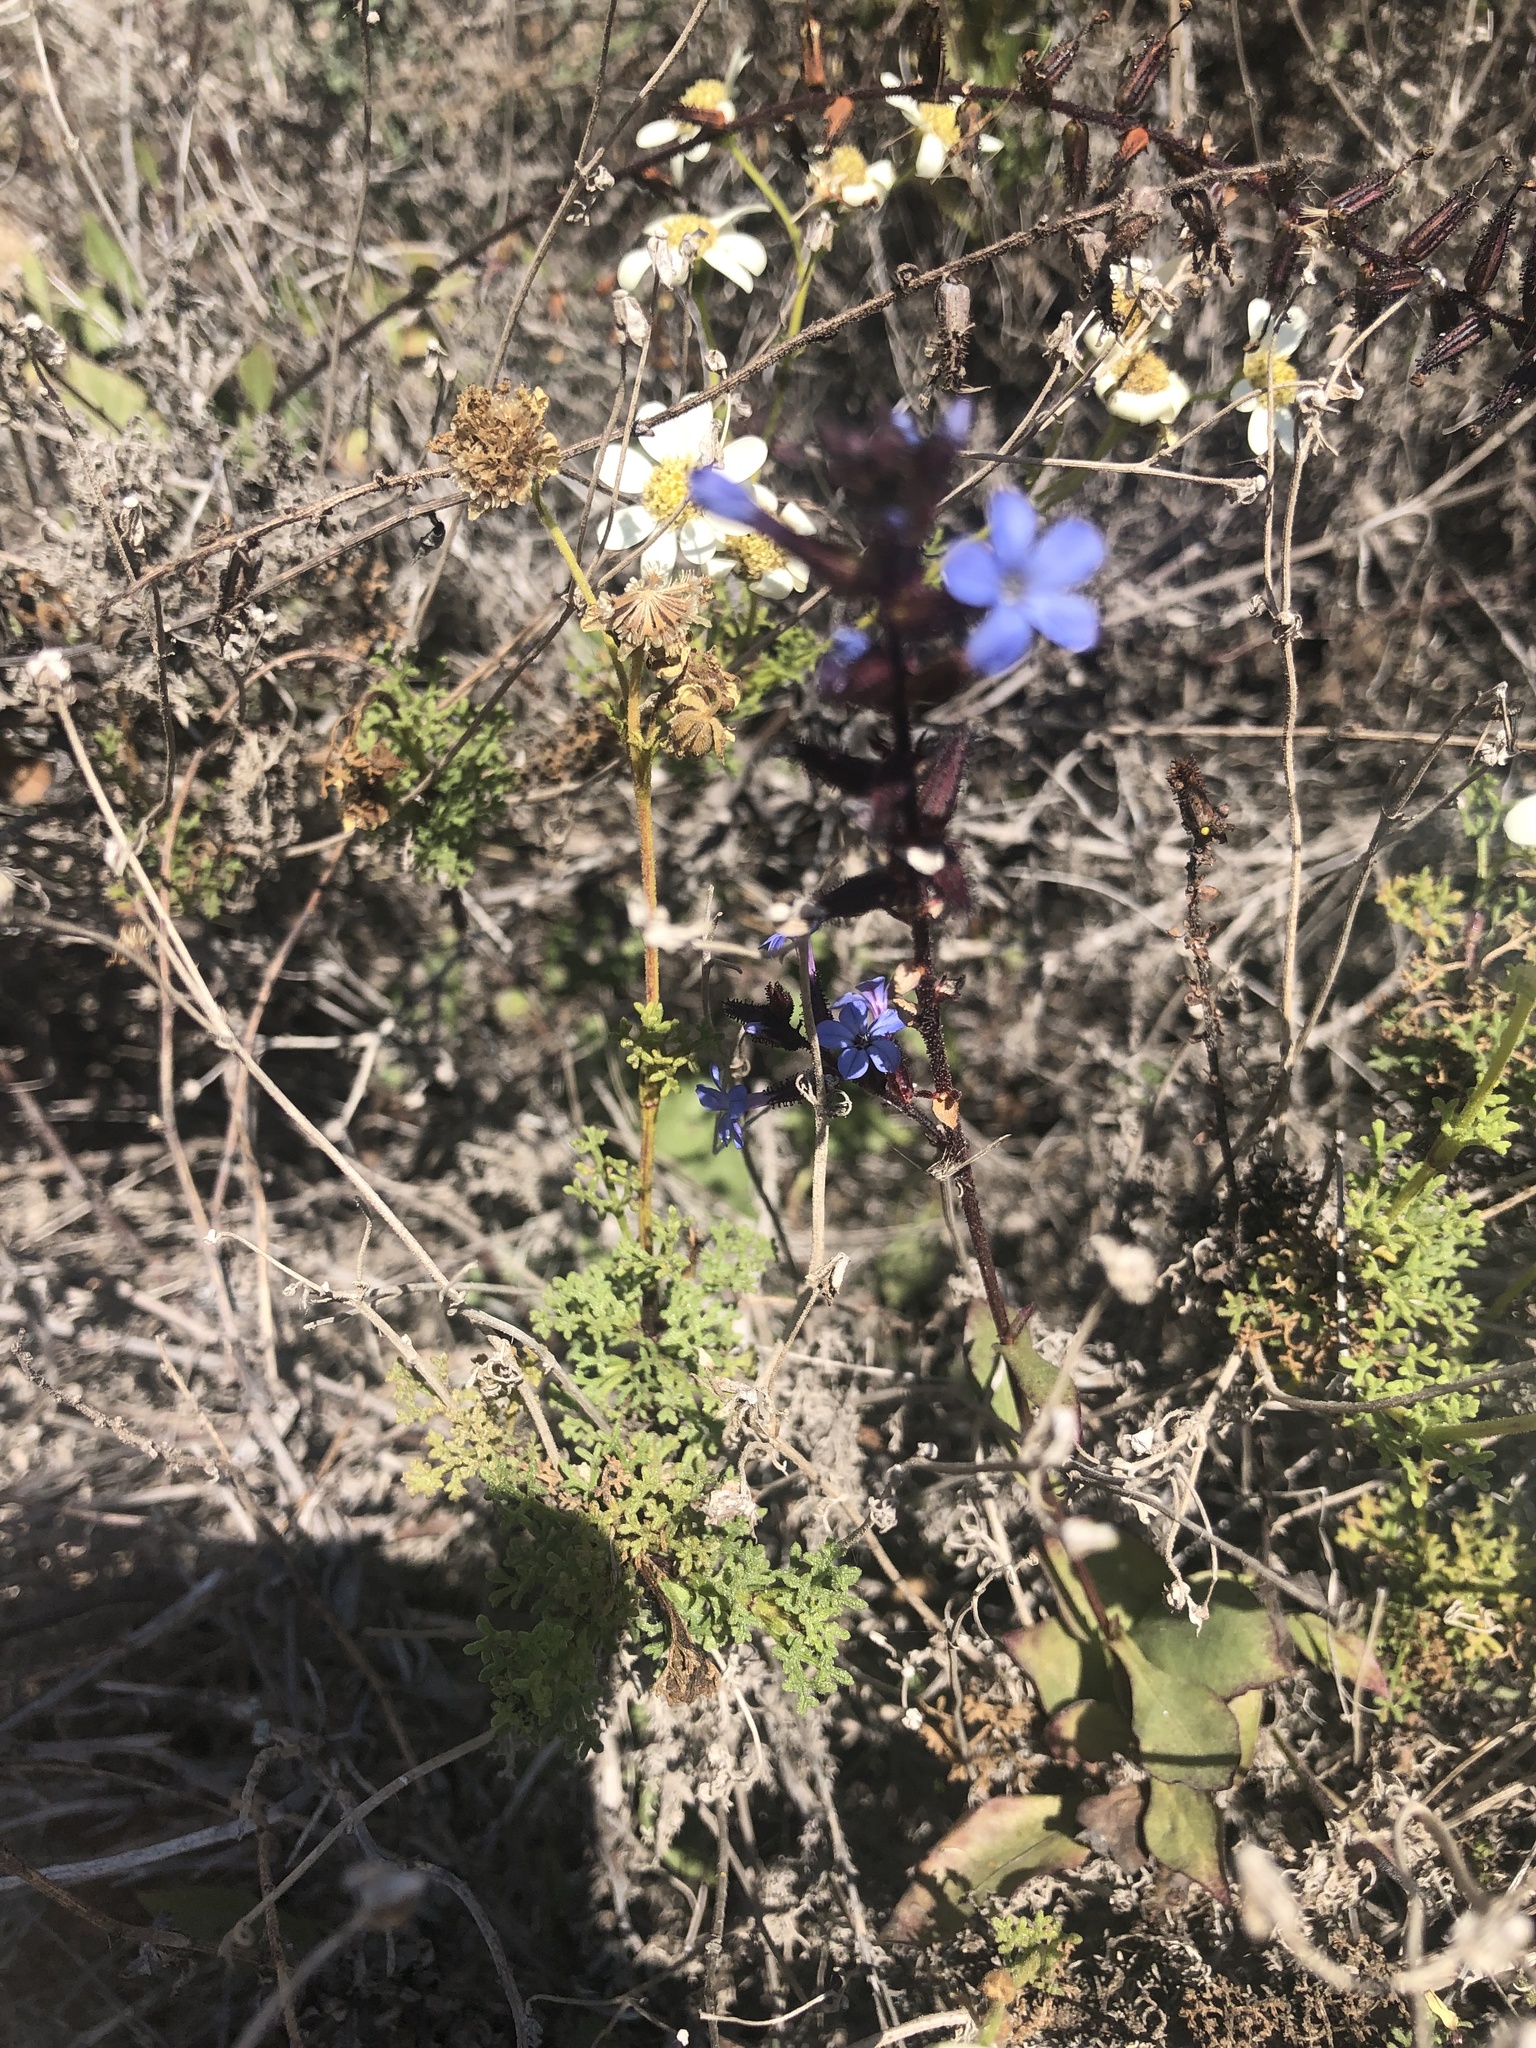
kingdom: Plantae
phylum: Tracheophyta
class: Magnoliopsida
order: Caryophyllales
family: Plumbaginaceae
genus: Plumbago
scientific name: Plumbago caerulea
